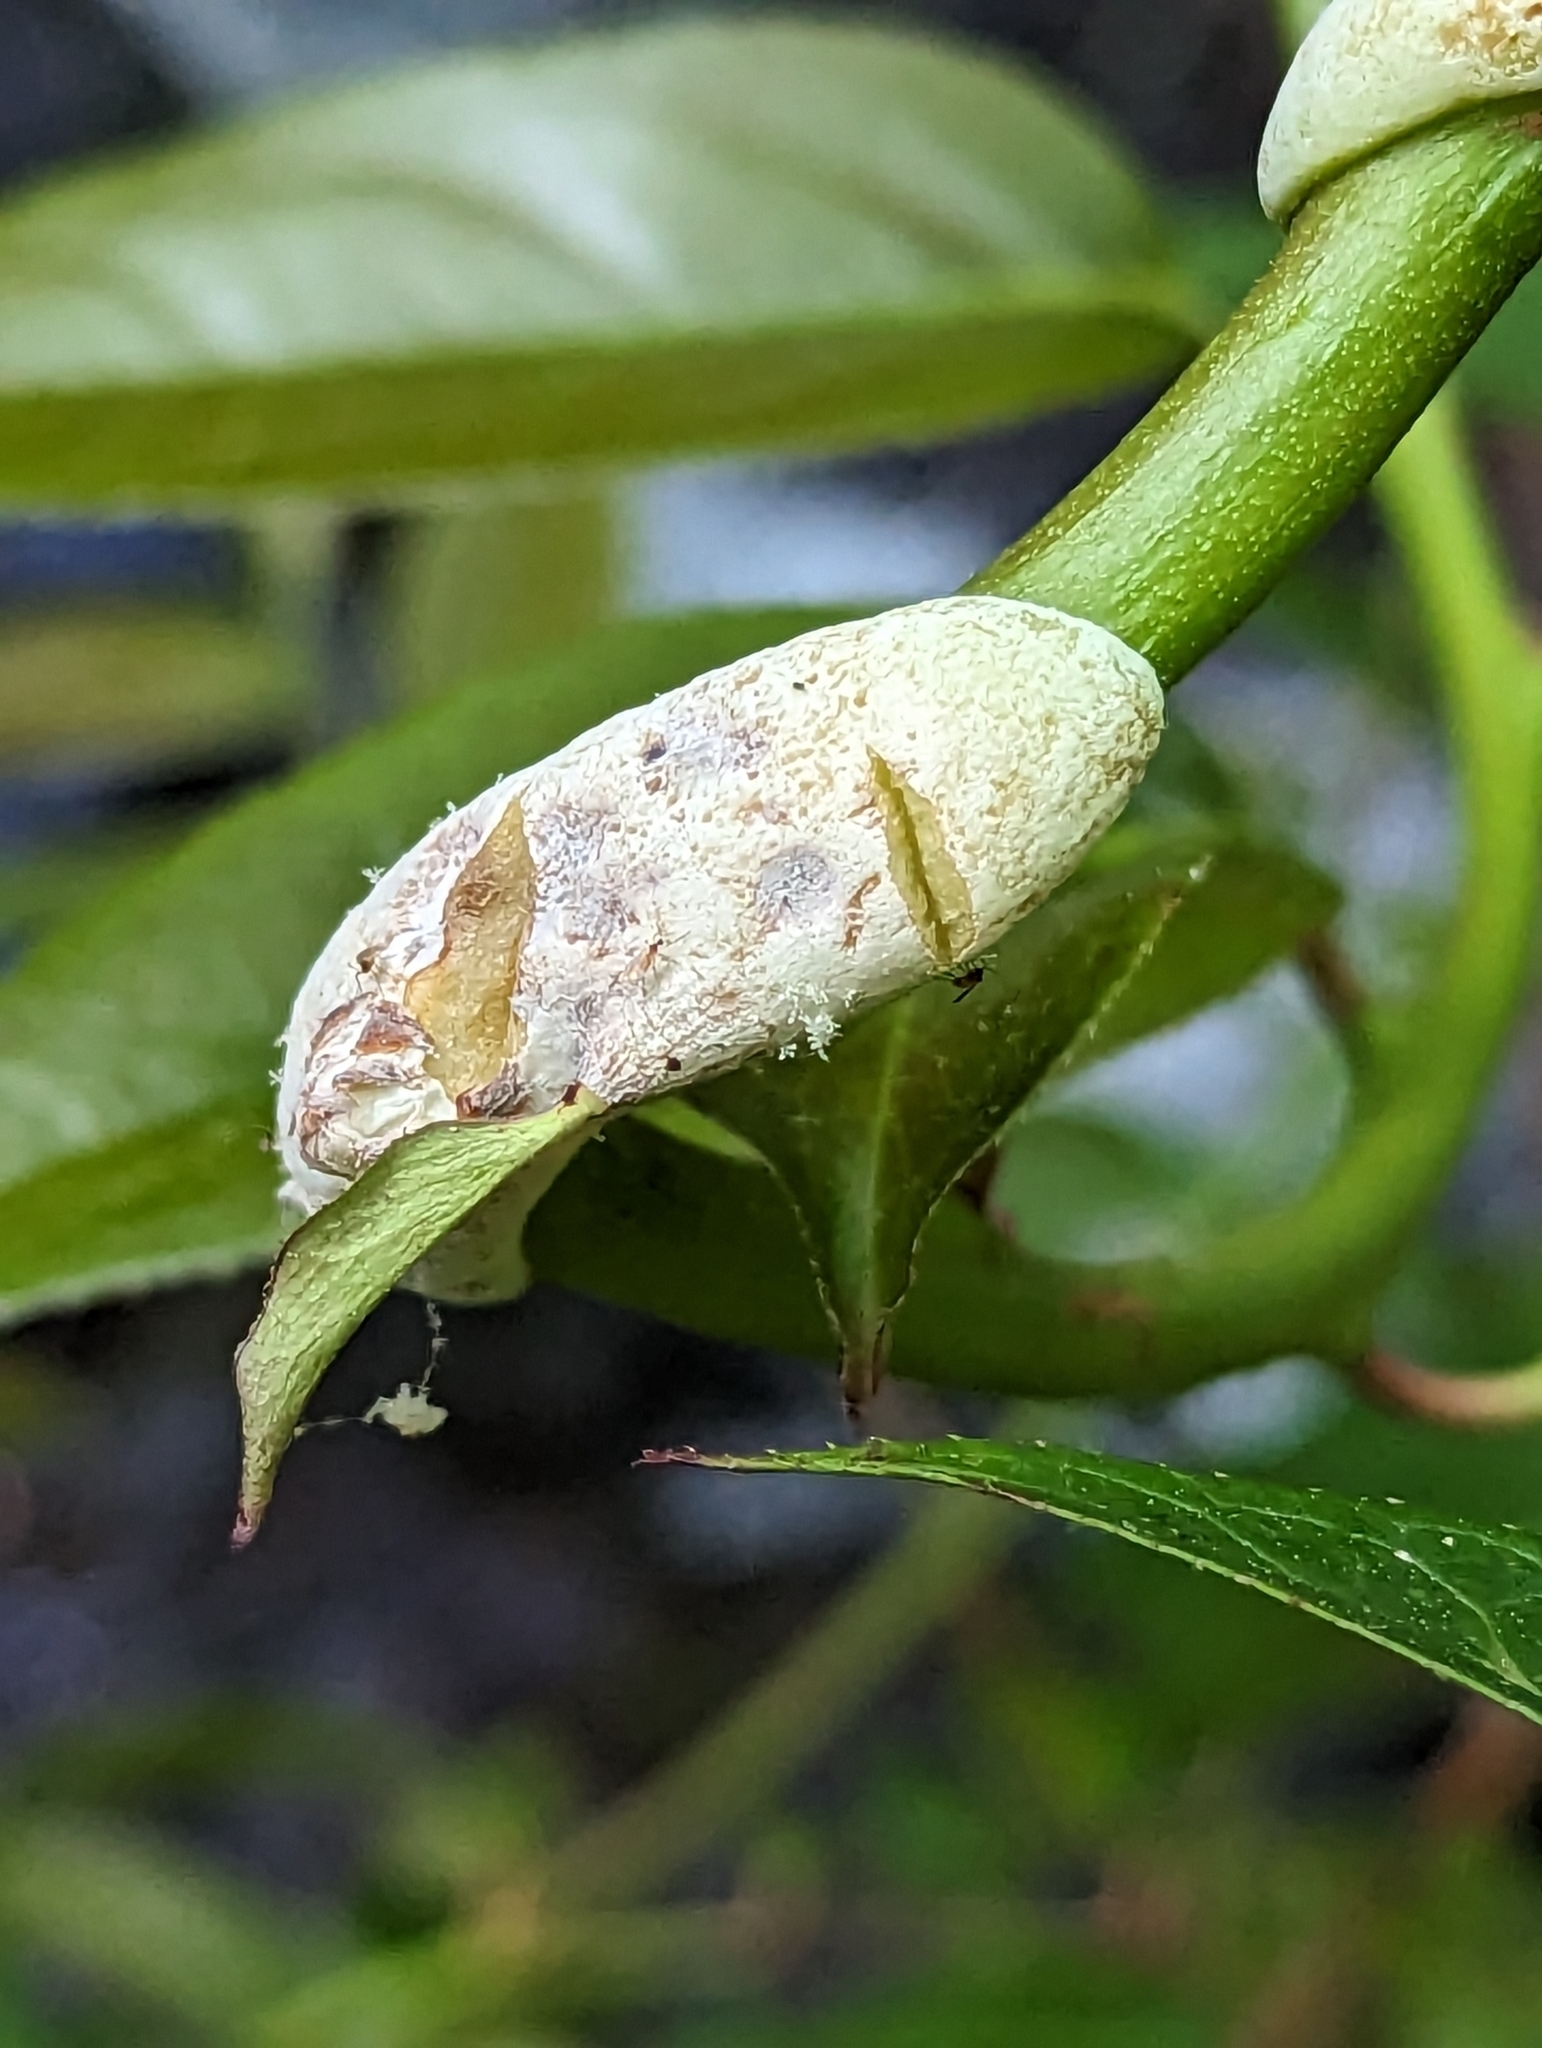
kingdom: Fungi
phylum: Basidiomycota
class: Exobasidiomycetes
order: Exobasidiales
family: Exobasidiaceae
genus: Exobasidium
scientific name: Exobasidium vaccinii
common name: Cowberry redleaf
